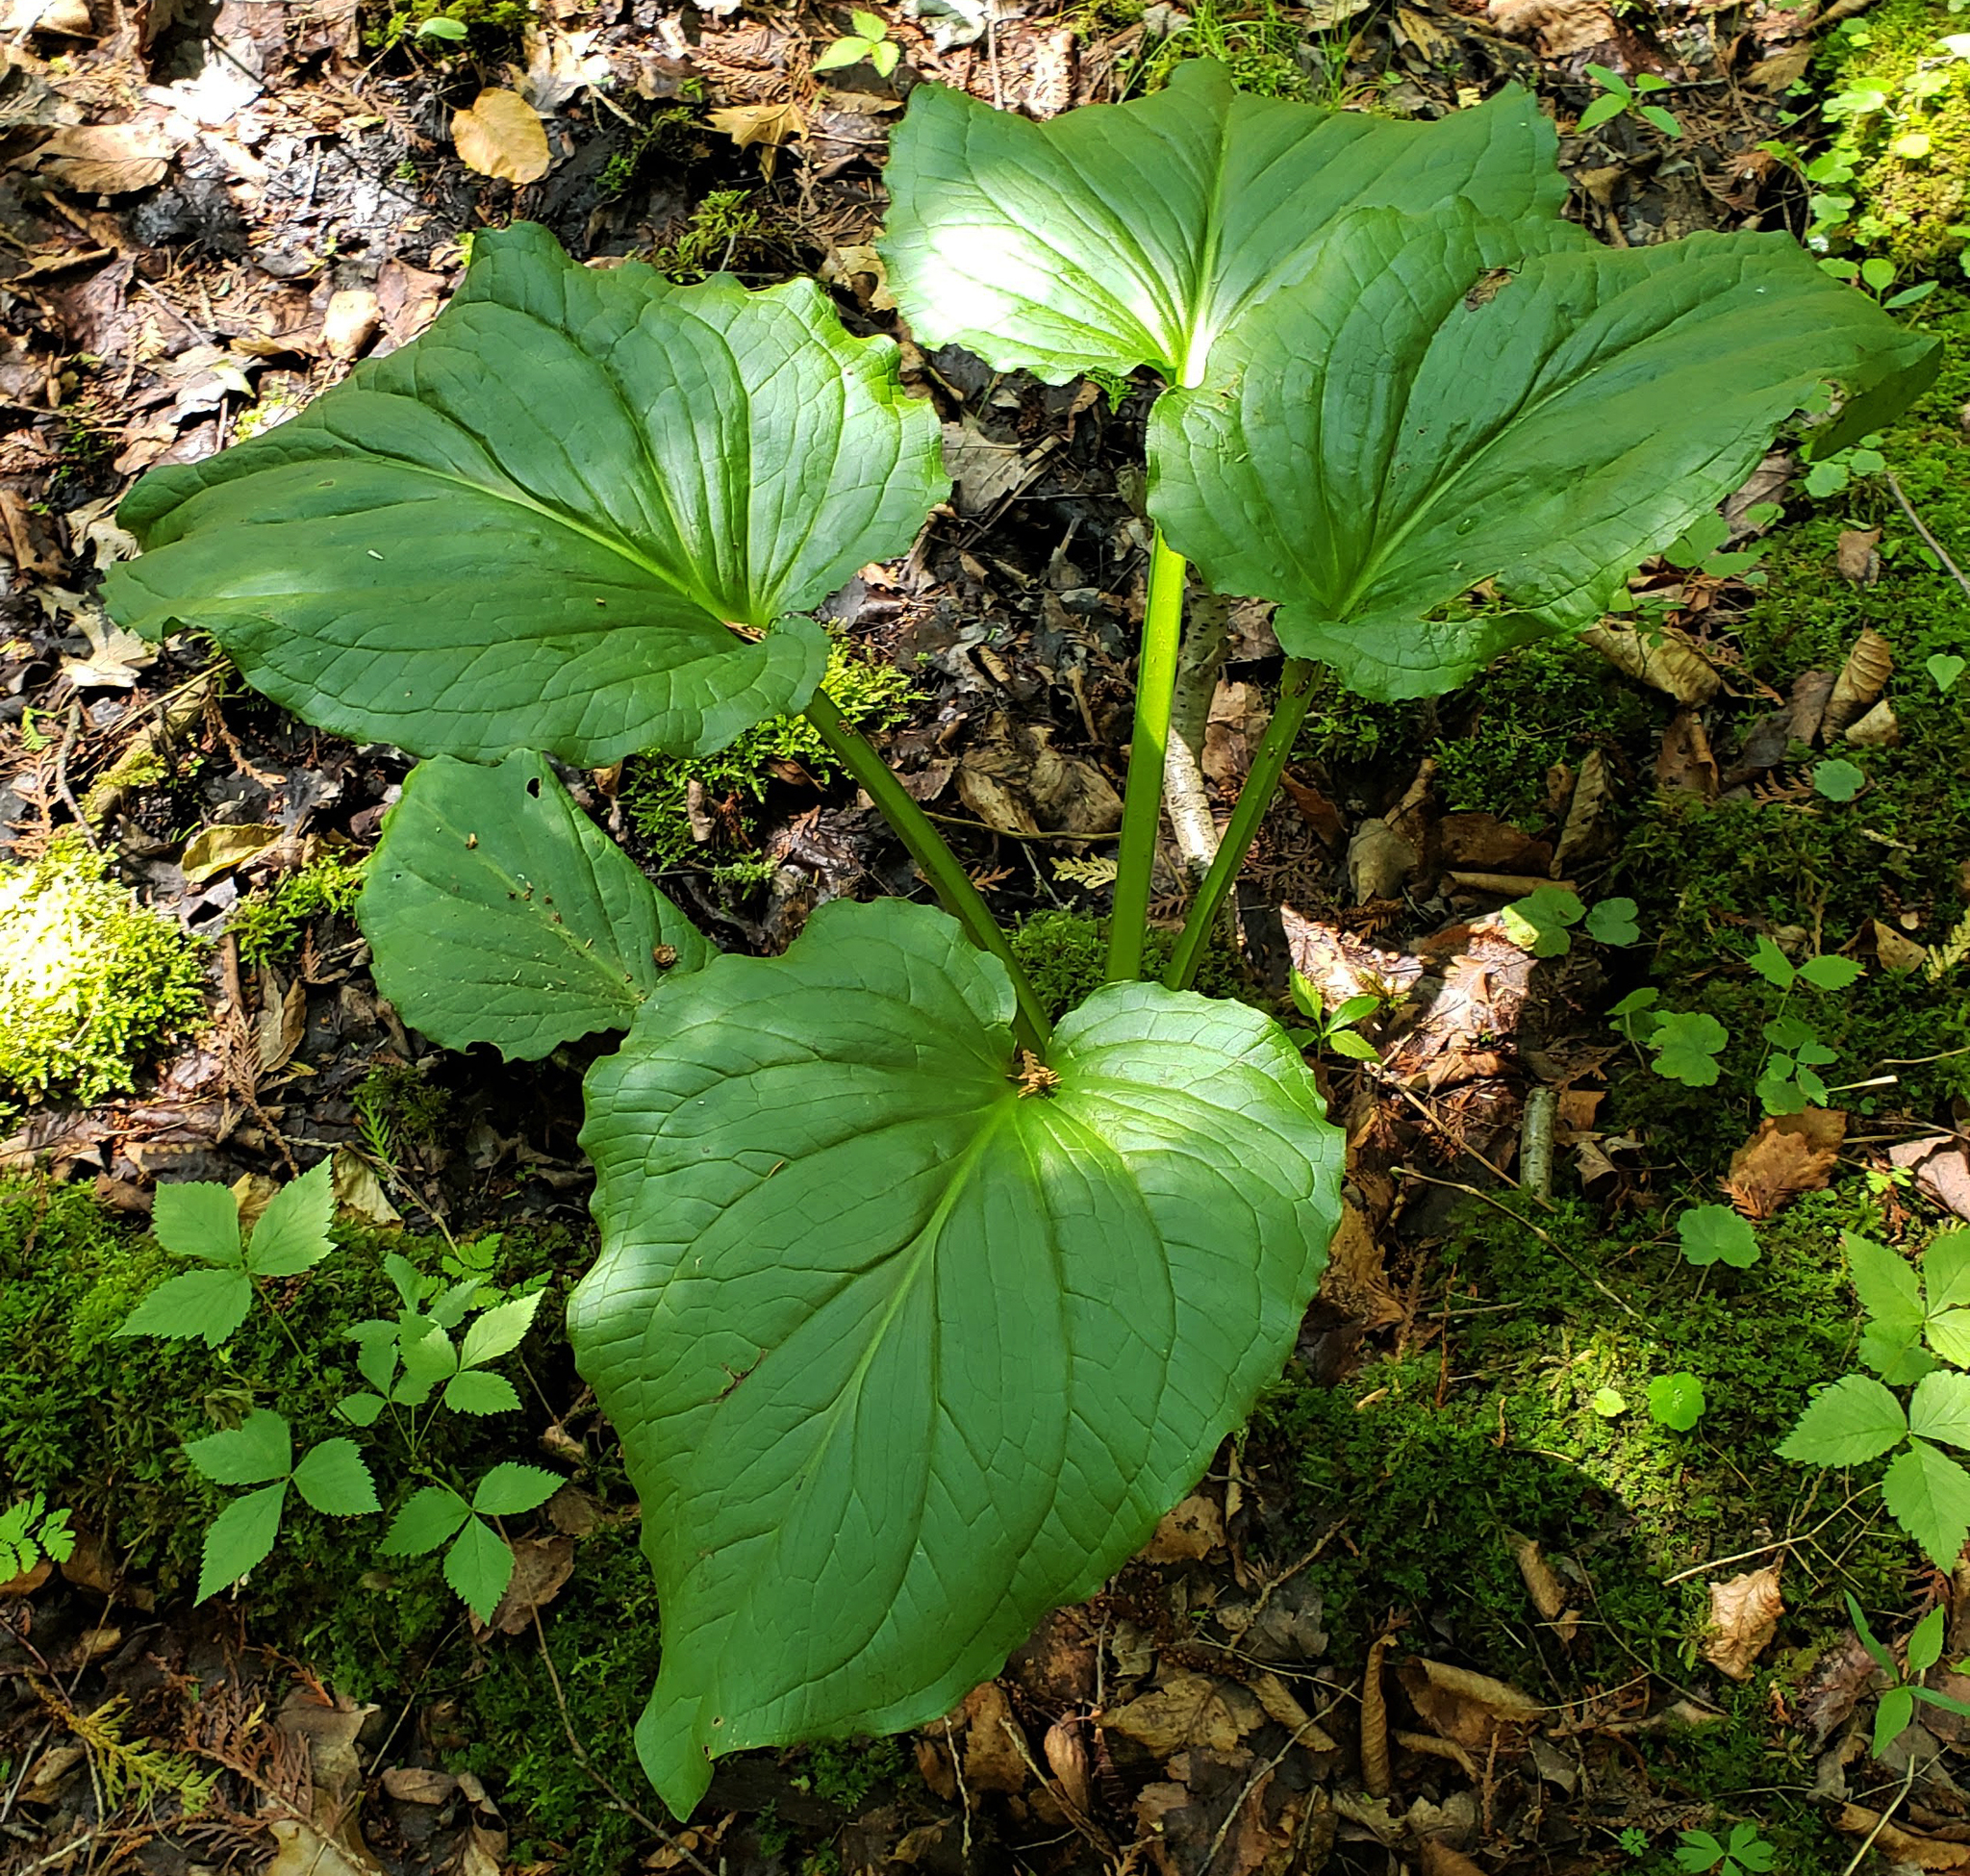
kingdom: Plantae
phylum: Tracheophyta
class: Liliopsida
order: Alismatales
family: Araceae
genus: Symplocarpus
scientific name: Symplocarpus foetidus
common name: Eastern skunk cabbage
